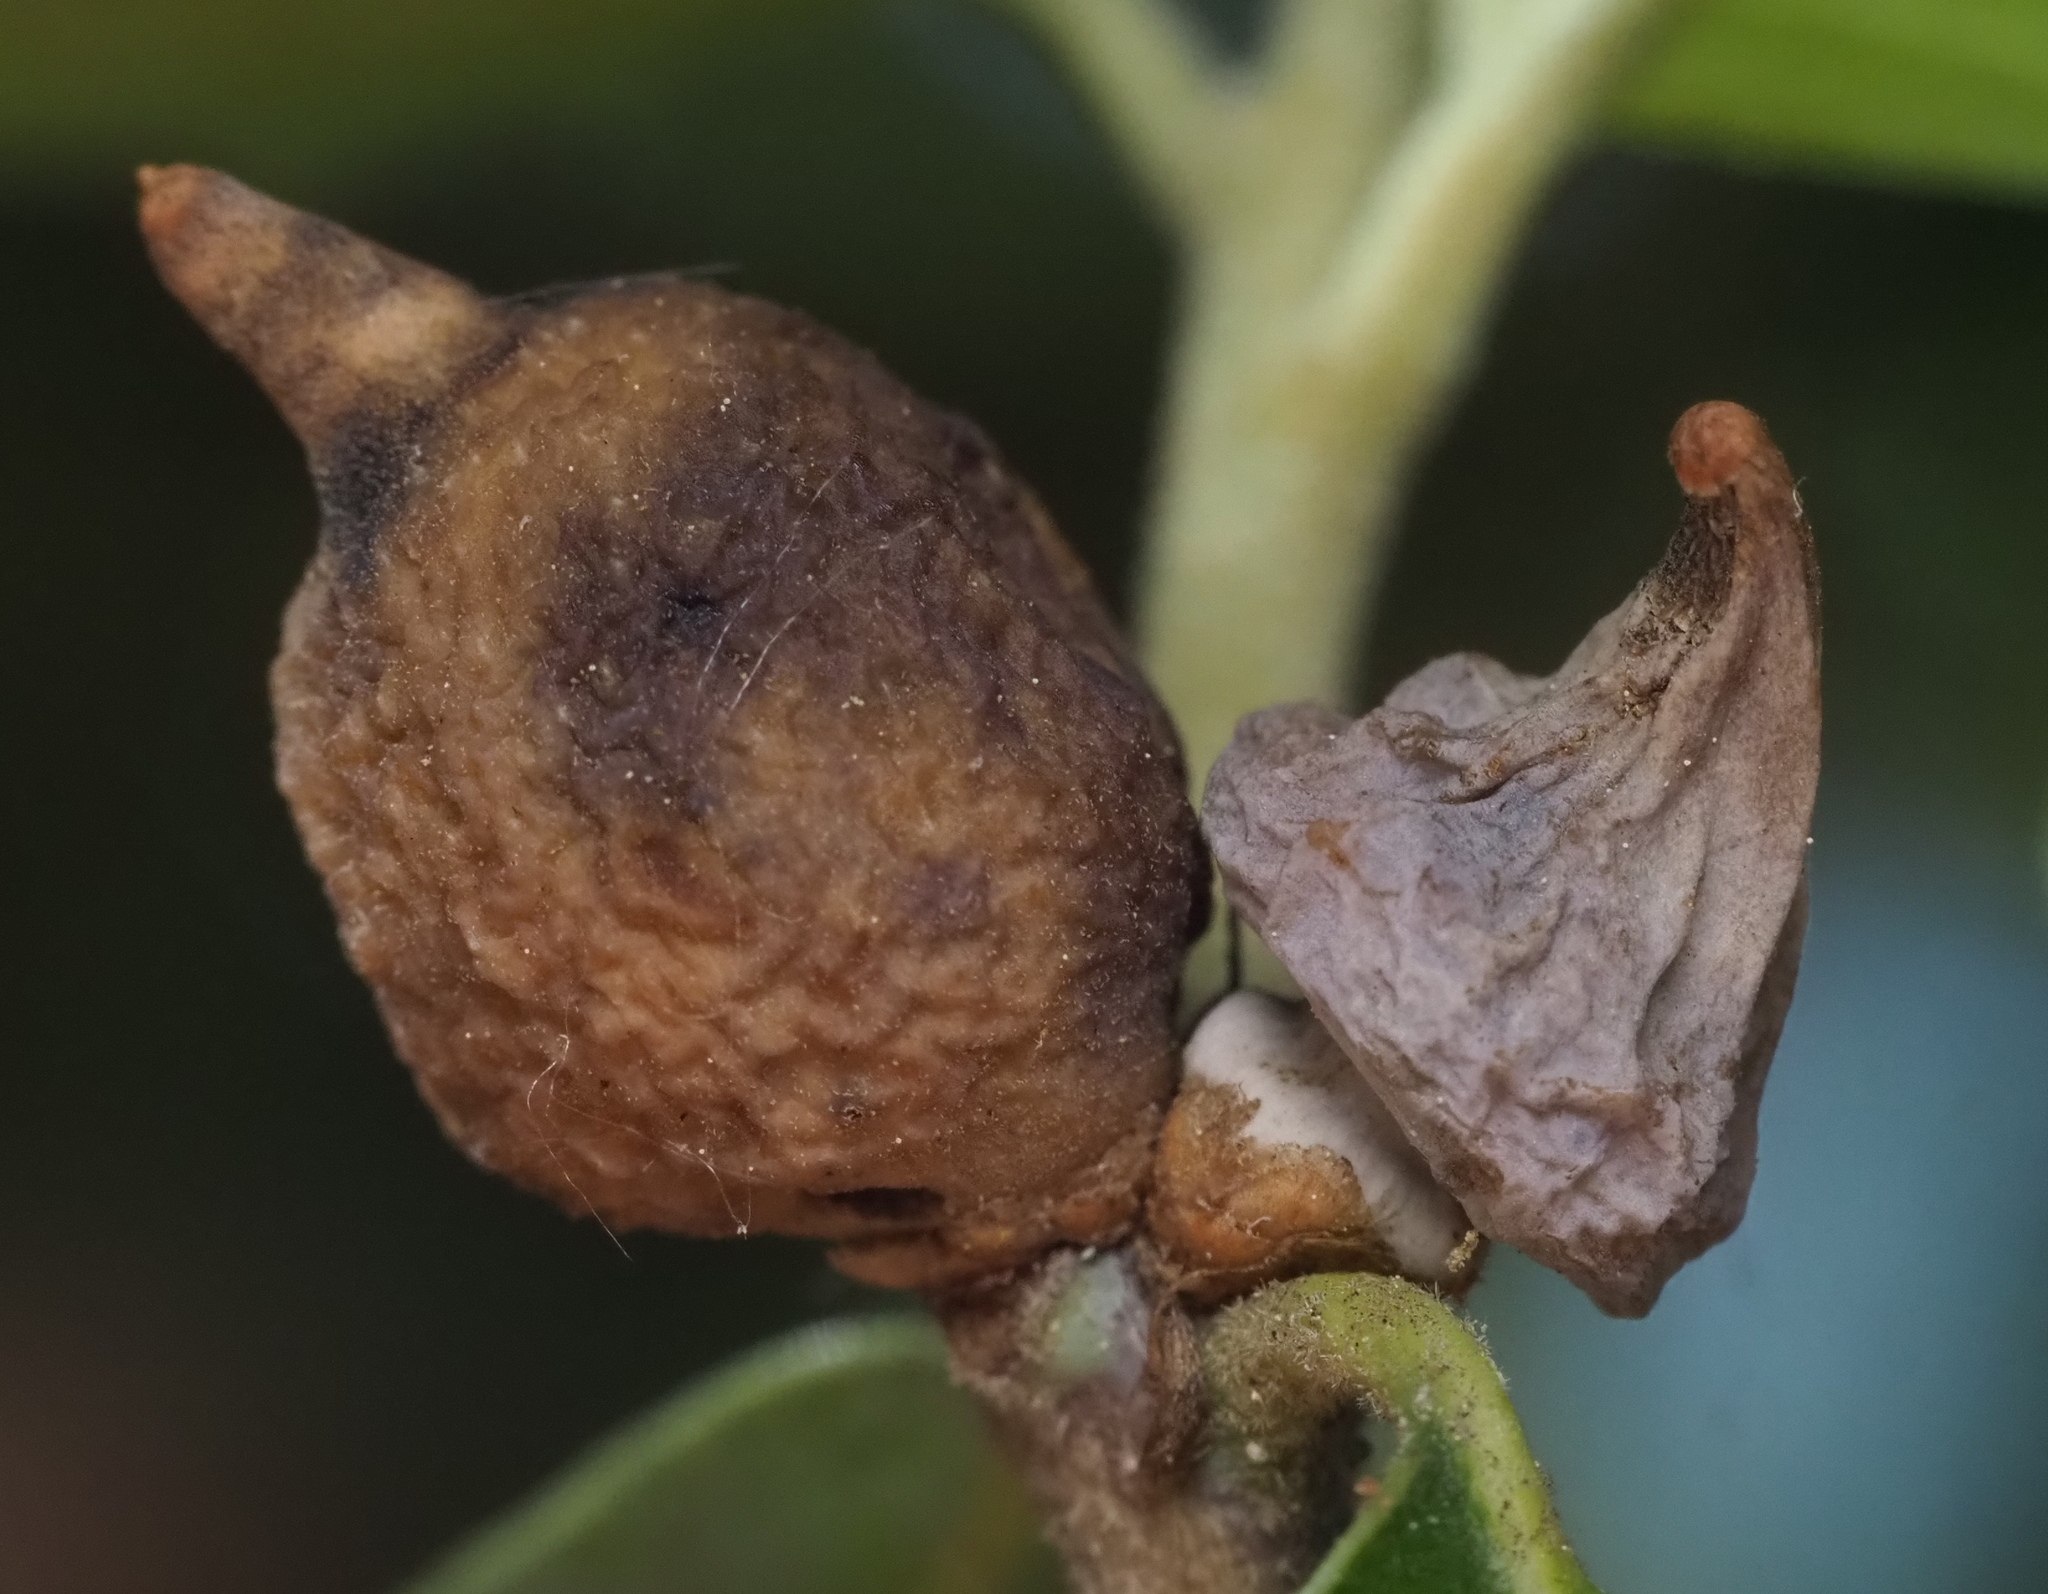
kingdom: Animalia
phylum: Arthropoda
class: Insecta
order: Hymenoptera
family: Cynipidae
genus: Heteroecus
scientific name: Heteroecus
